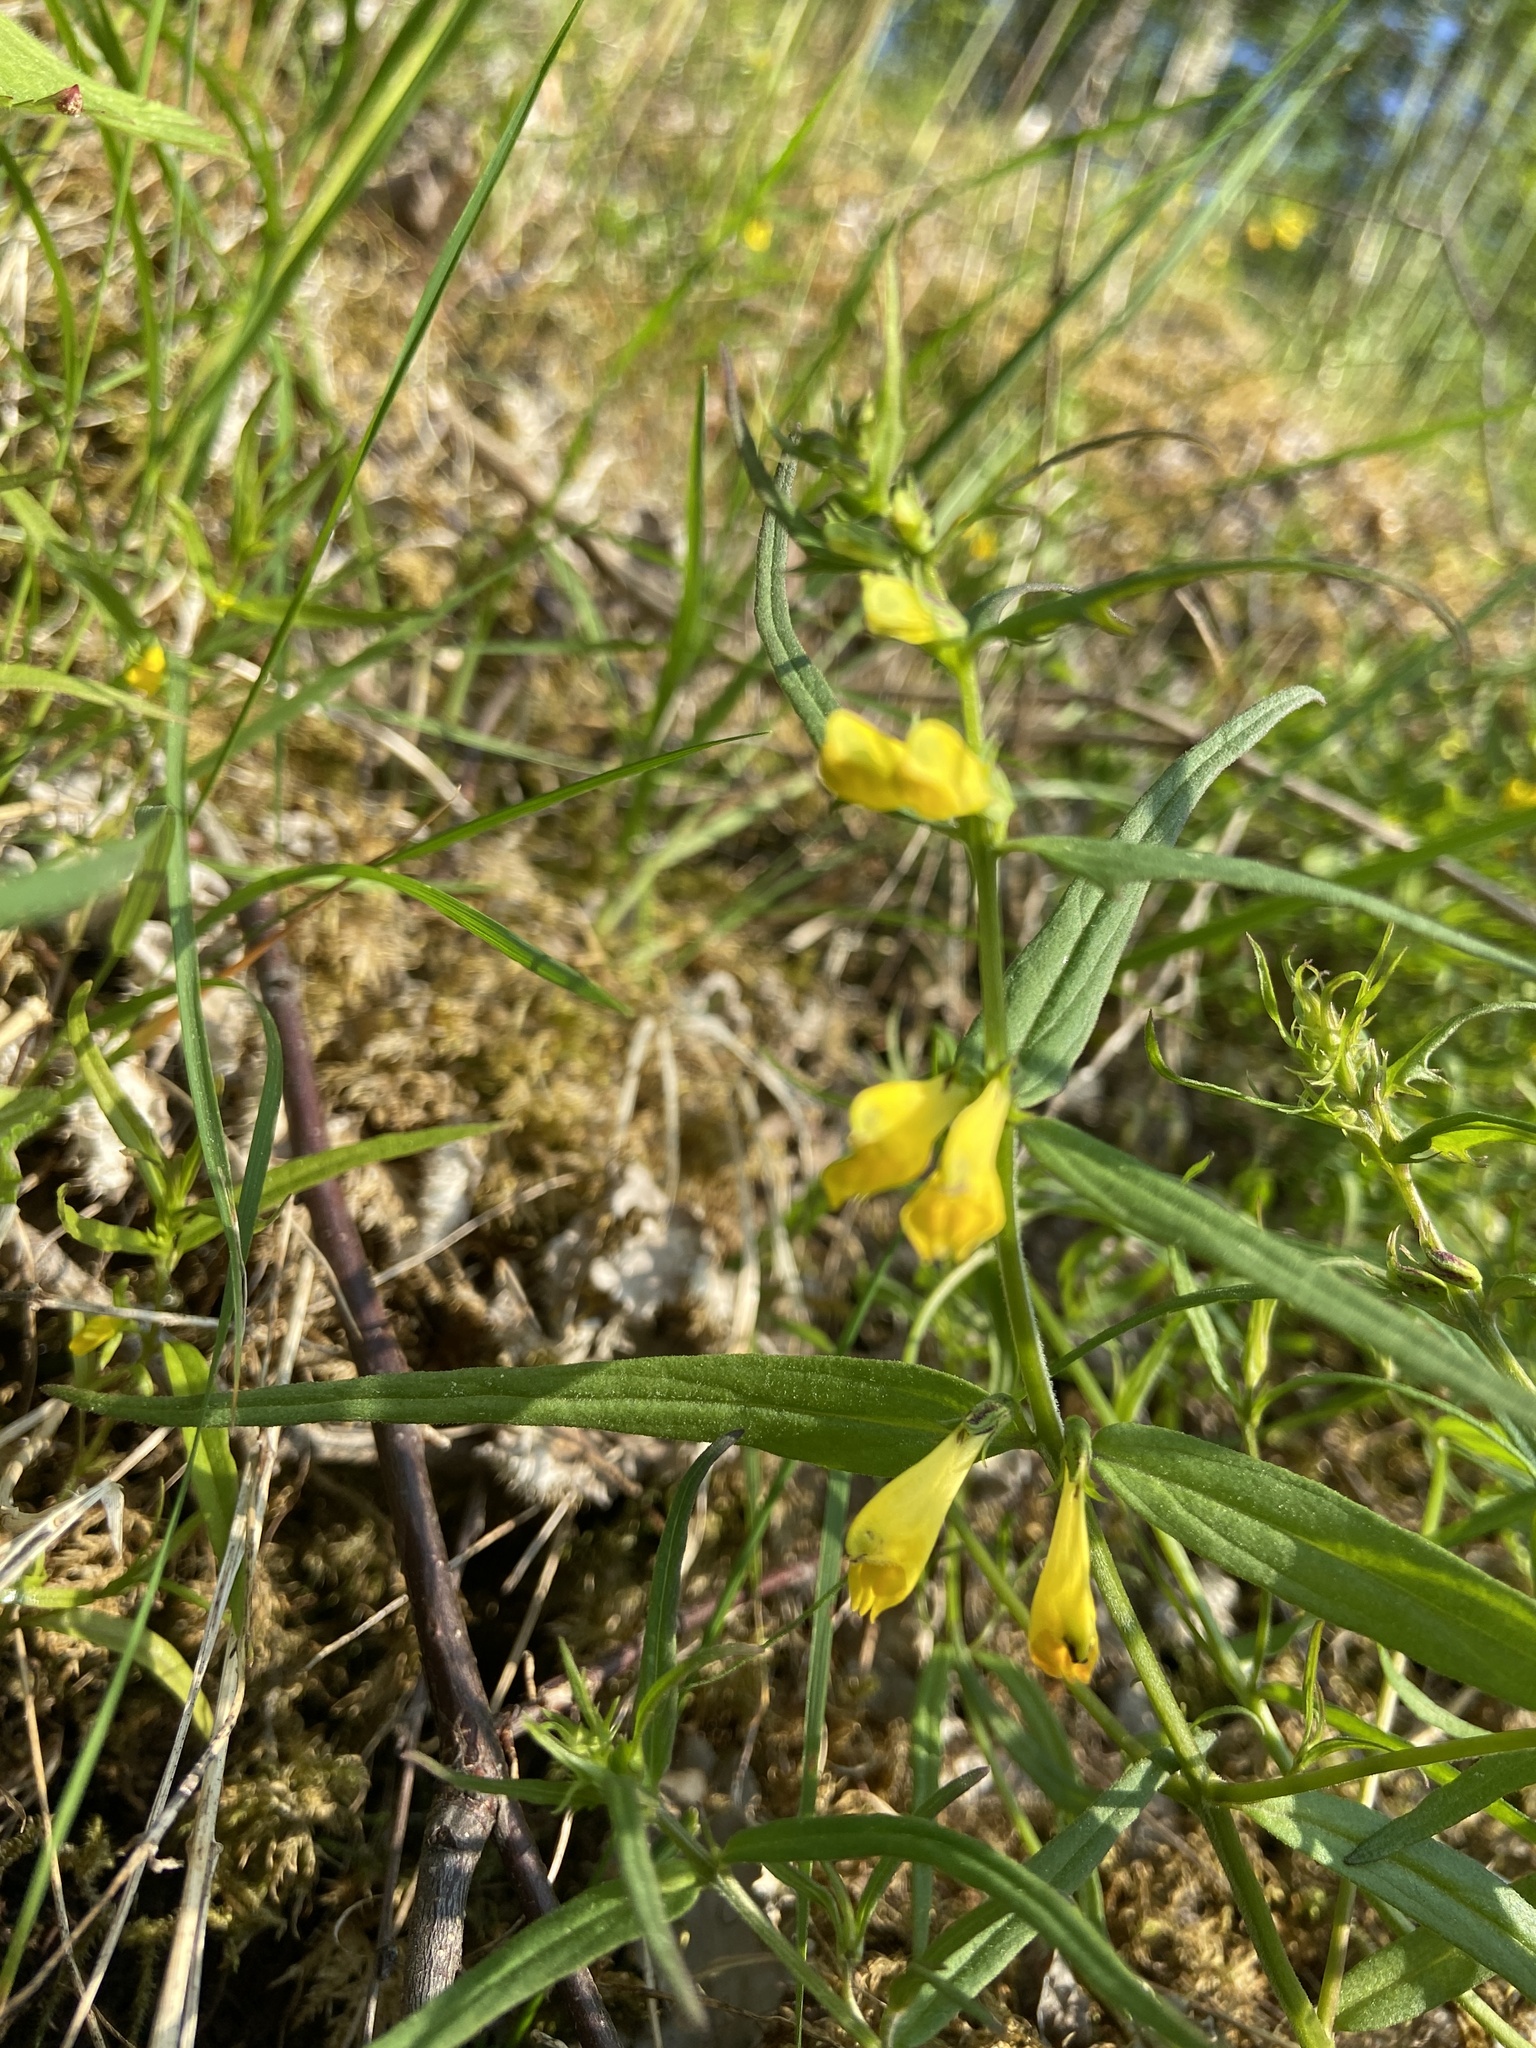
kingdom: Plantae
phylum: Tracheophyta
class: Magnoliopsida
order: Lamiales
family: Orobanchaceae
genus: Melampyrum
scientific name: Melampyrum pratense
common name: Common cow-wheat
